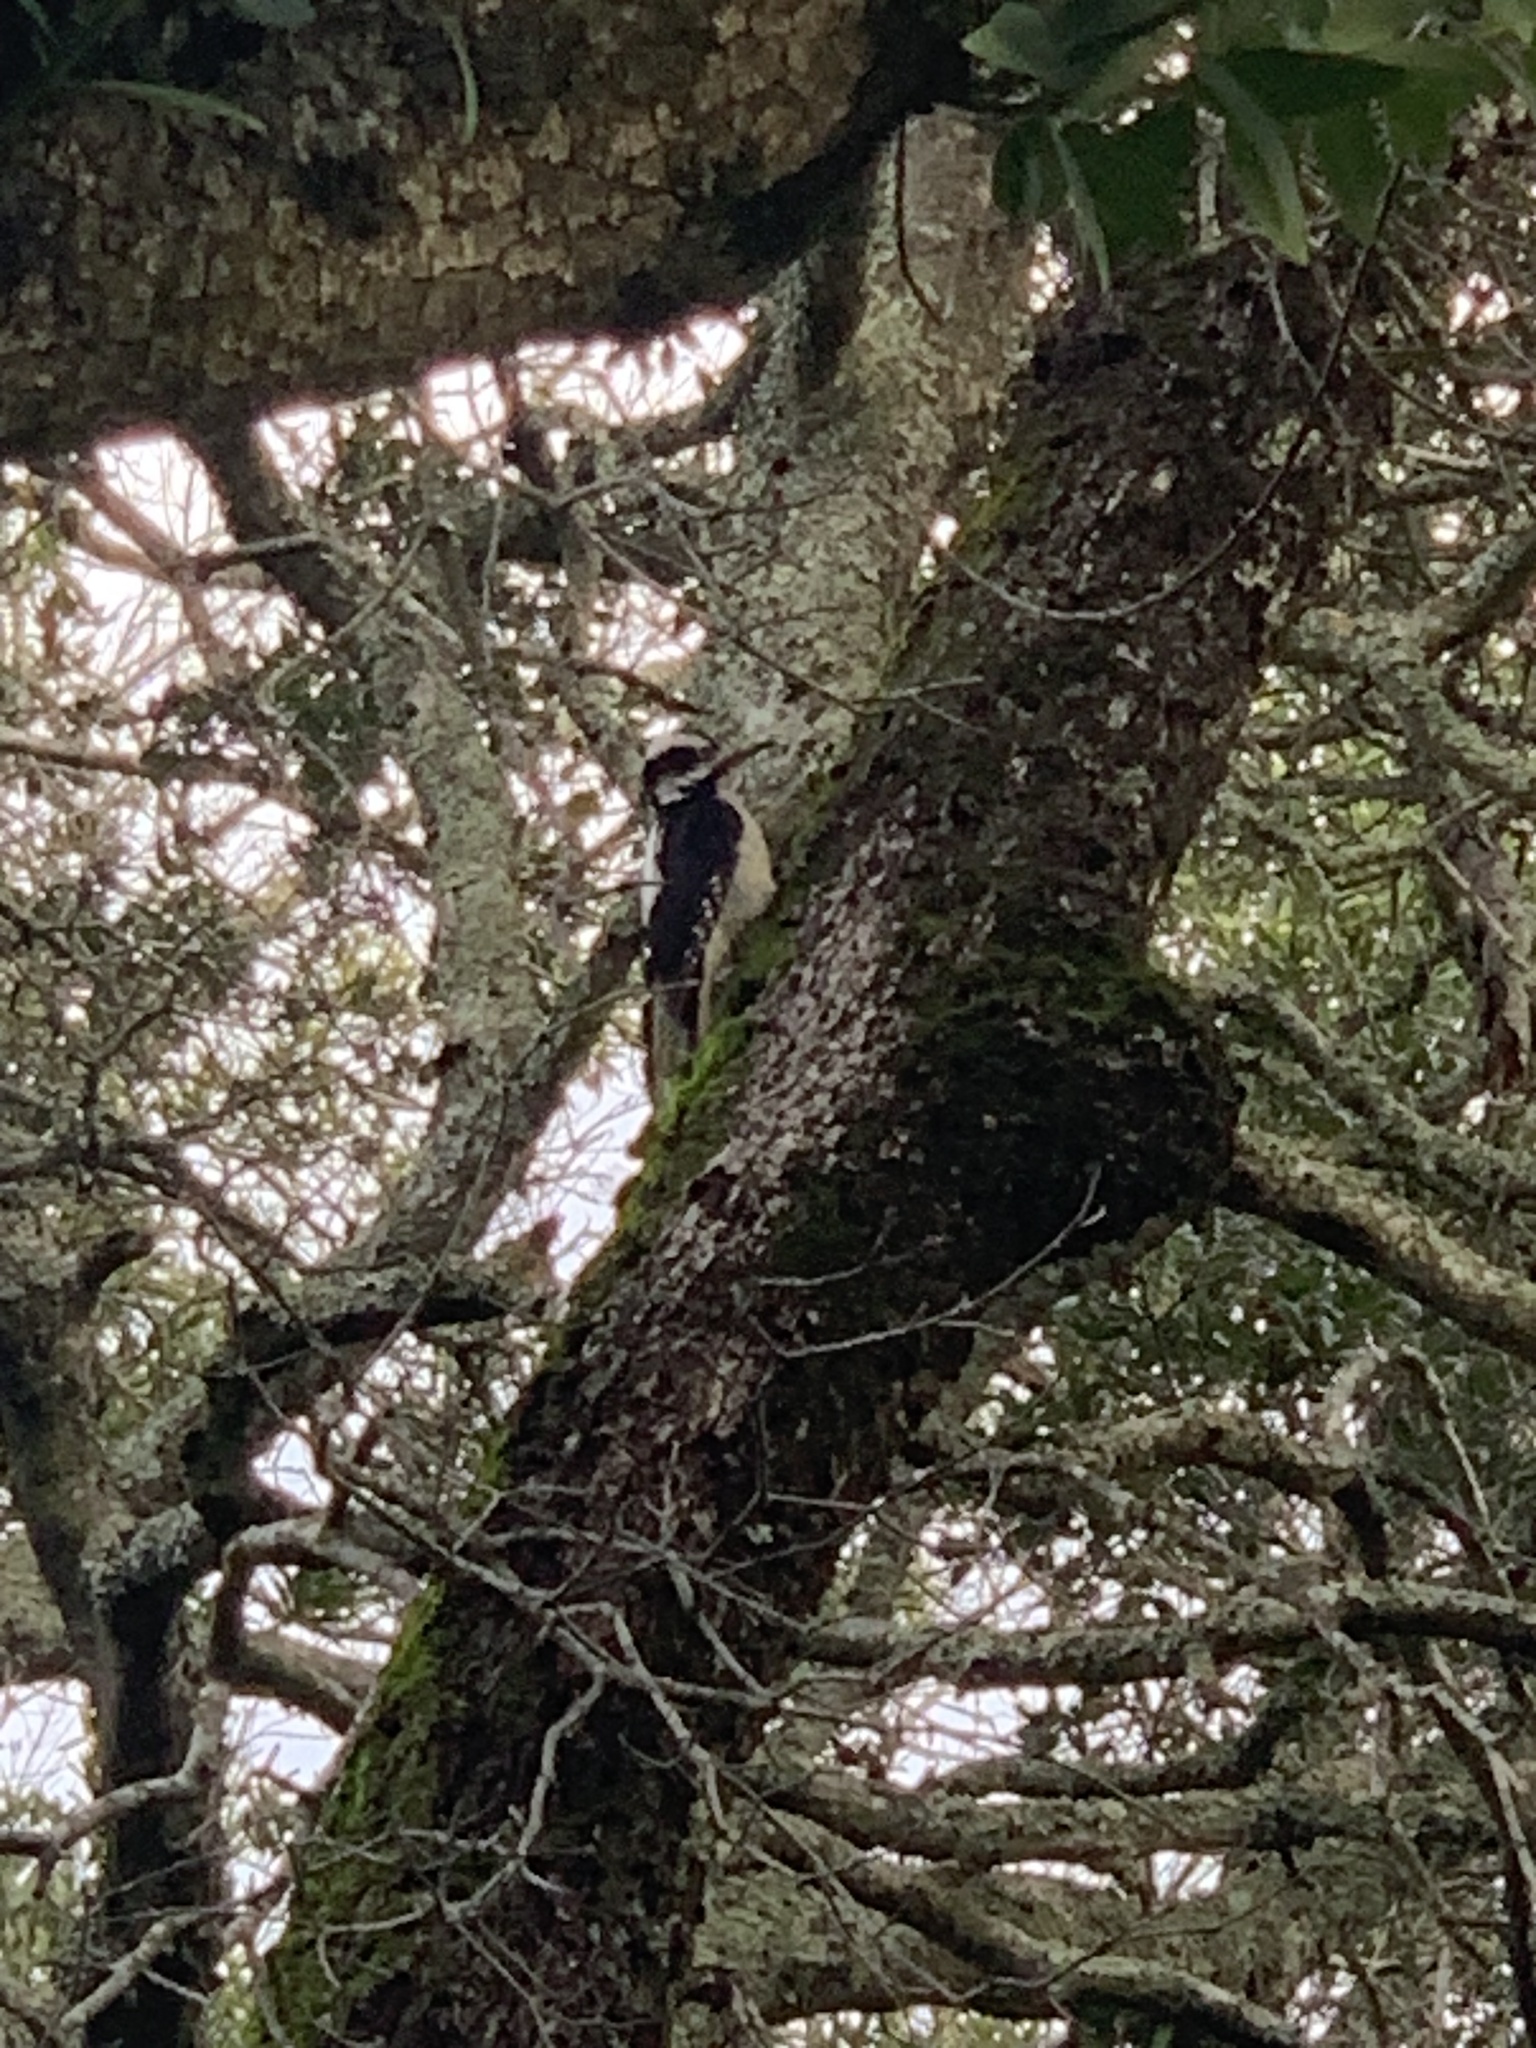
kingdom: Animalia
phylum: Chordata
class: Aves
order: Piciformes
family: Picidae
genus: Leuconotopicus
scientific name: Leuconotopicus villosus
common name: Hairy woodpecker
